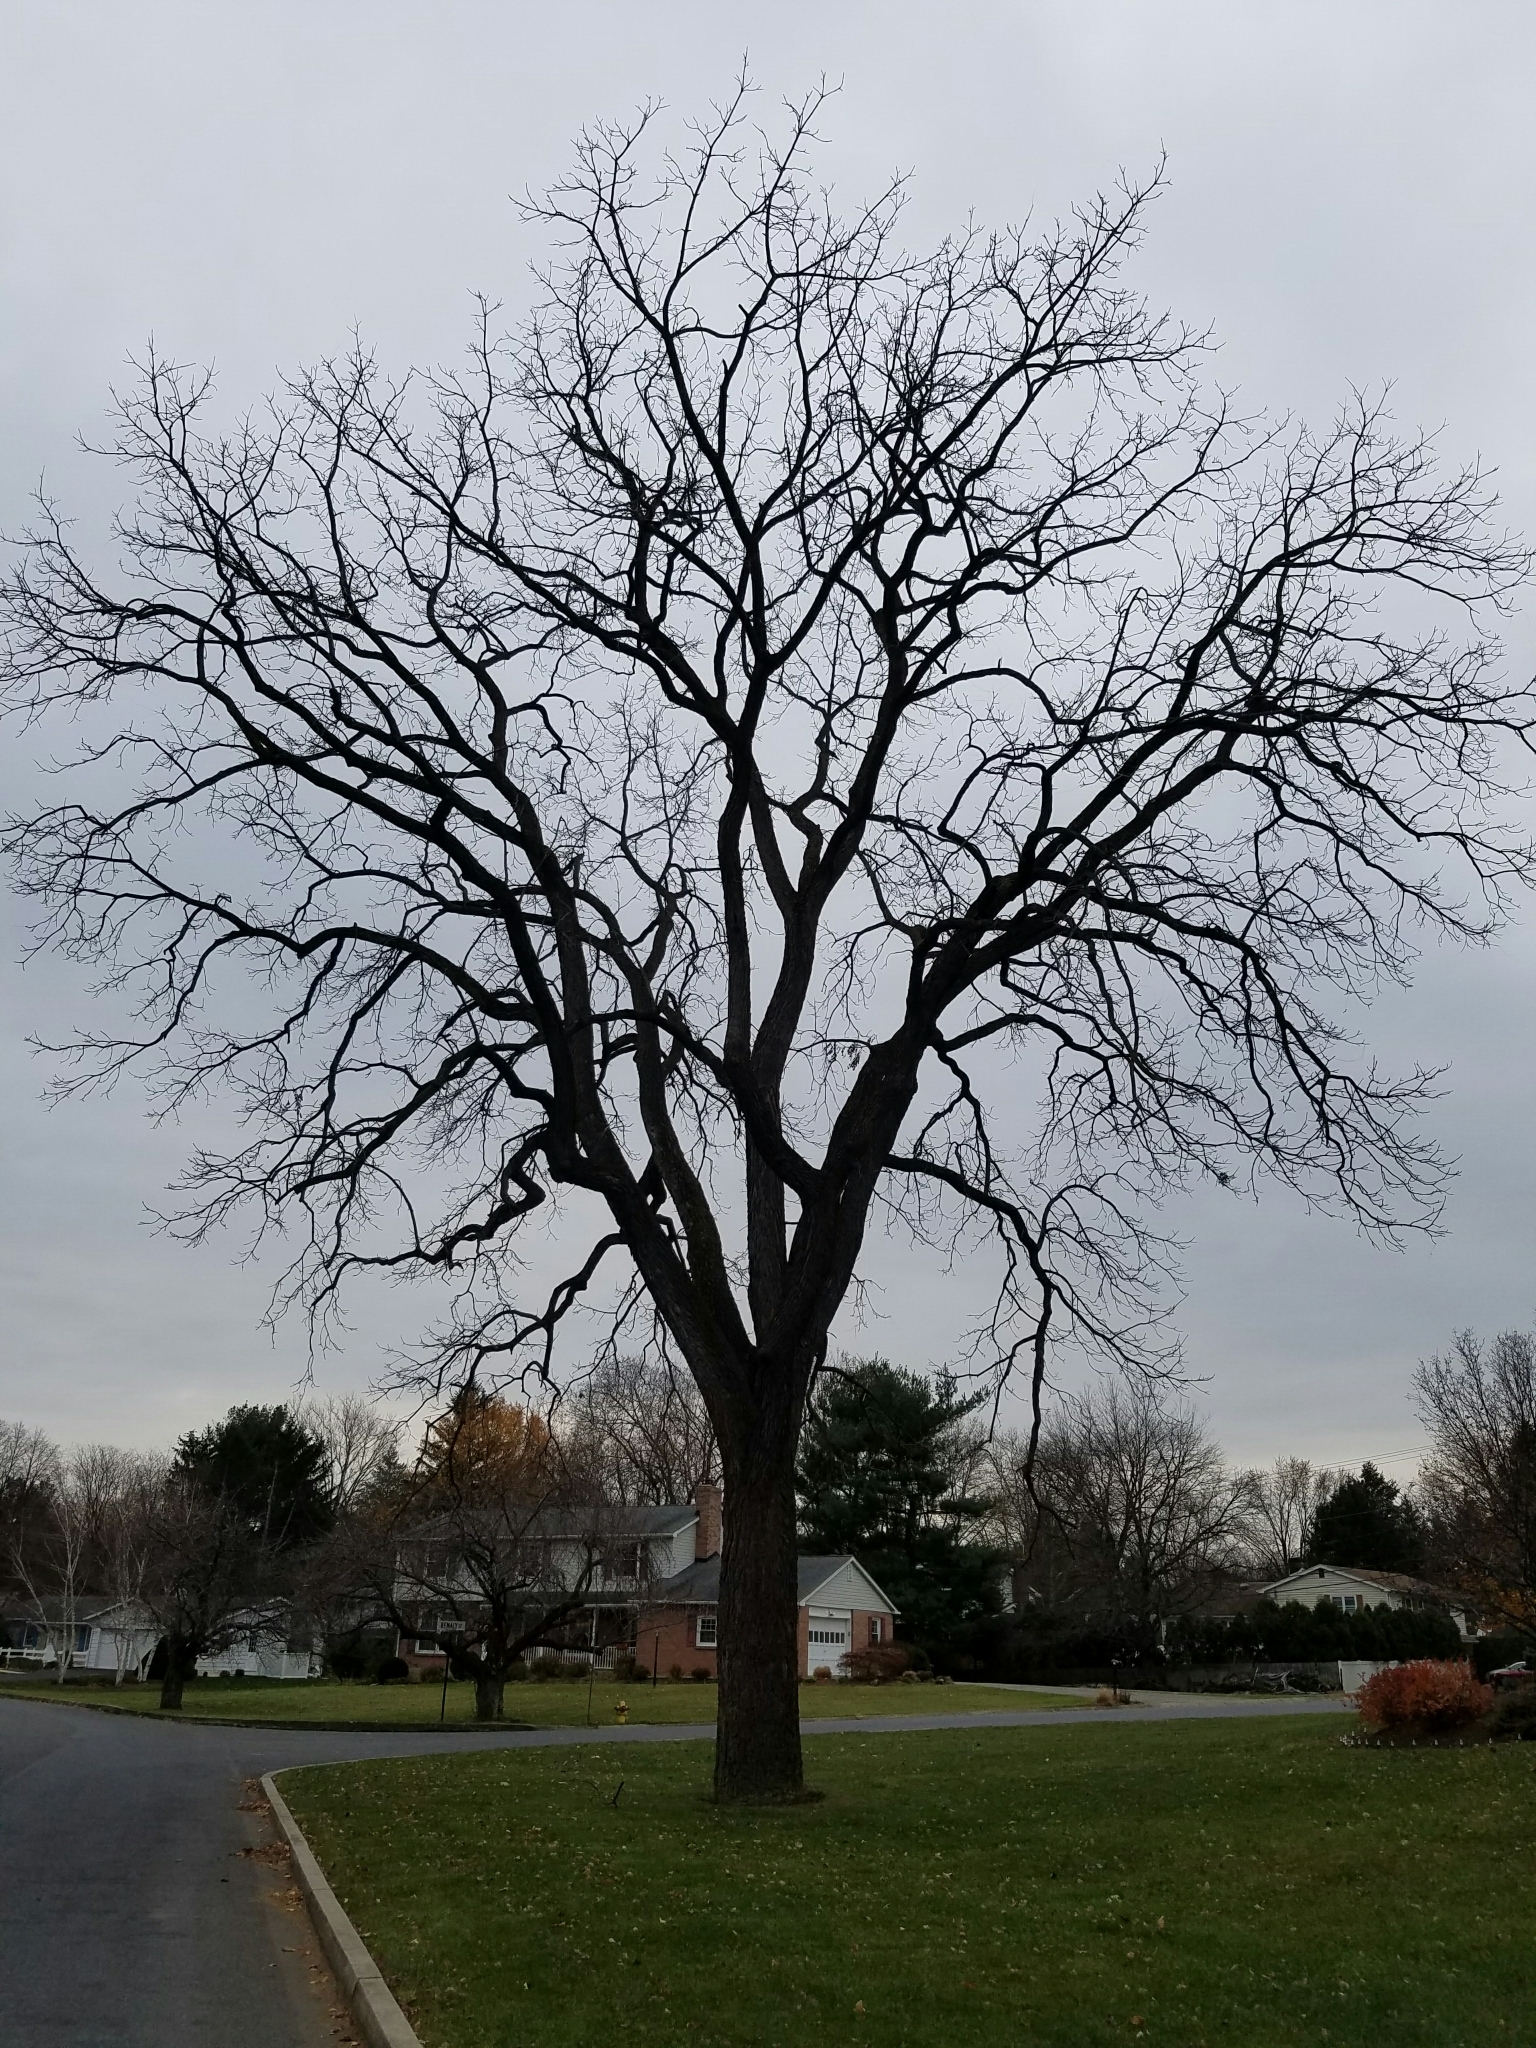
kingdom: Plantae
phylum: Tracheophyta
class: Magnoliopsida
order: Fagales
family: Juglandaceae
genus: Juglans
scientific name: Juglans nigra
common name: Black walnut
